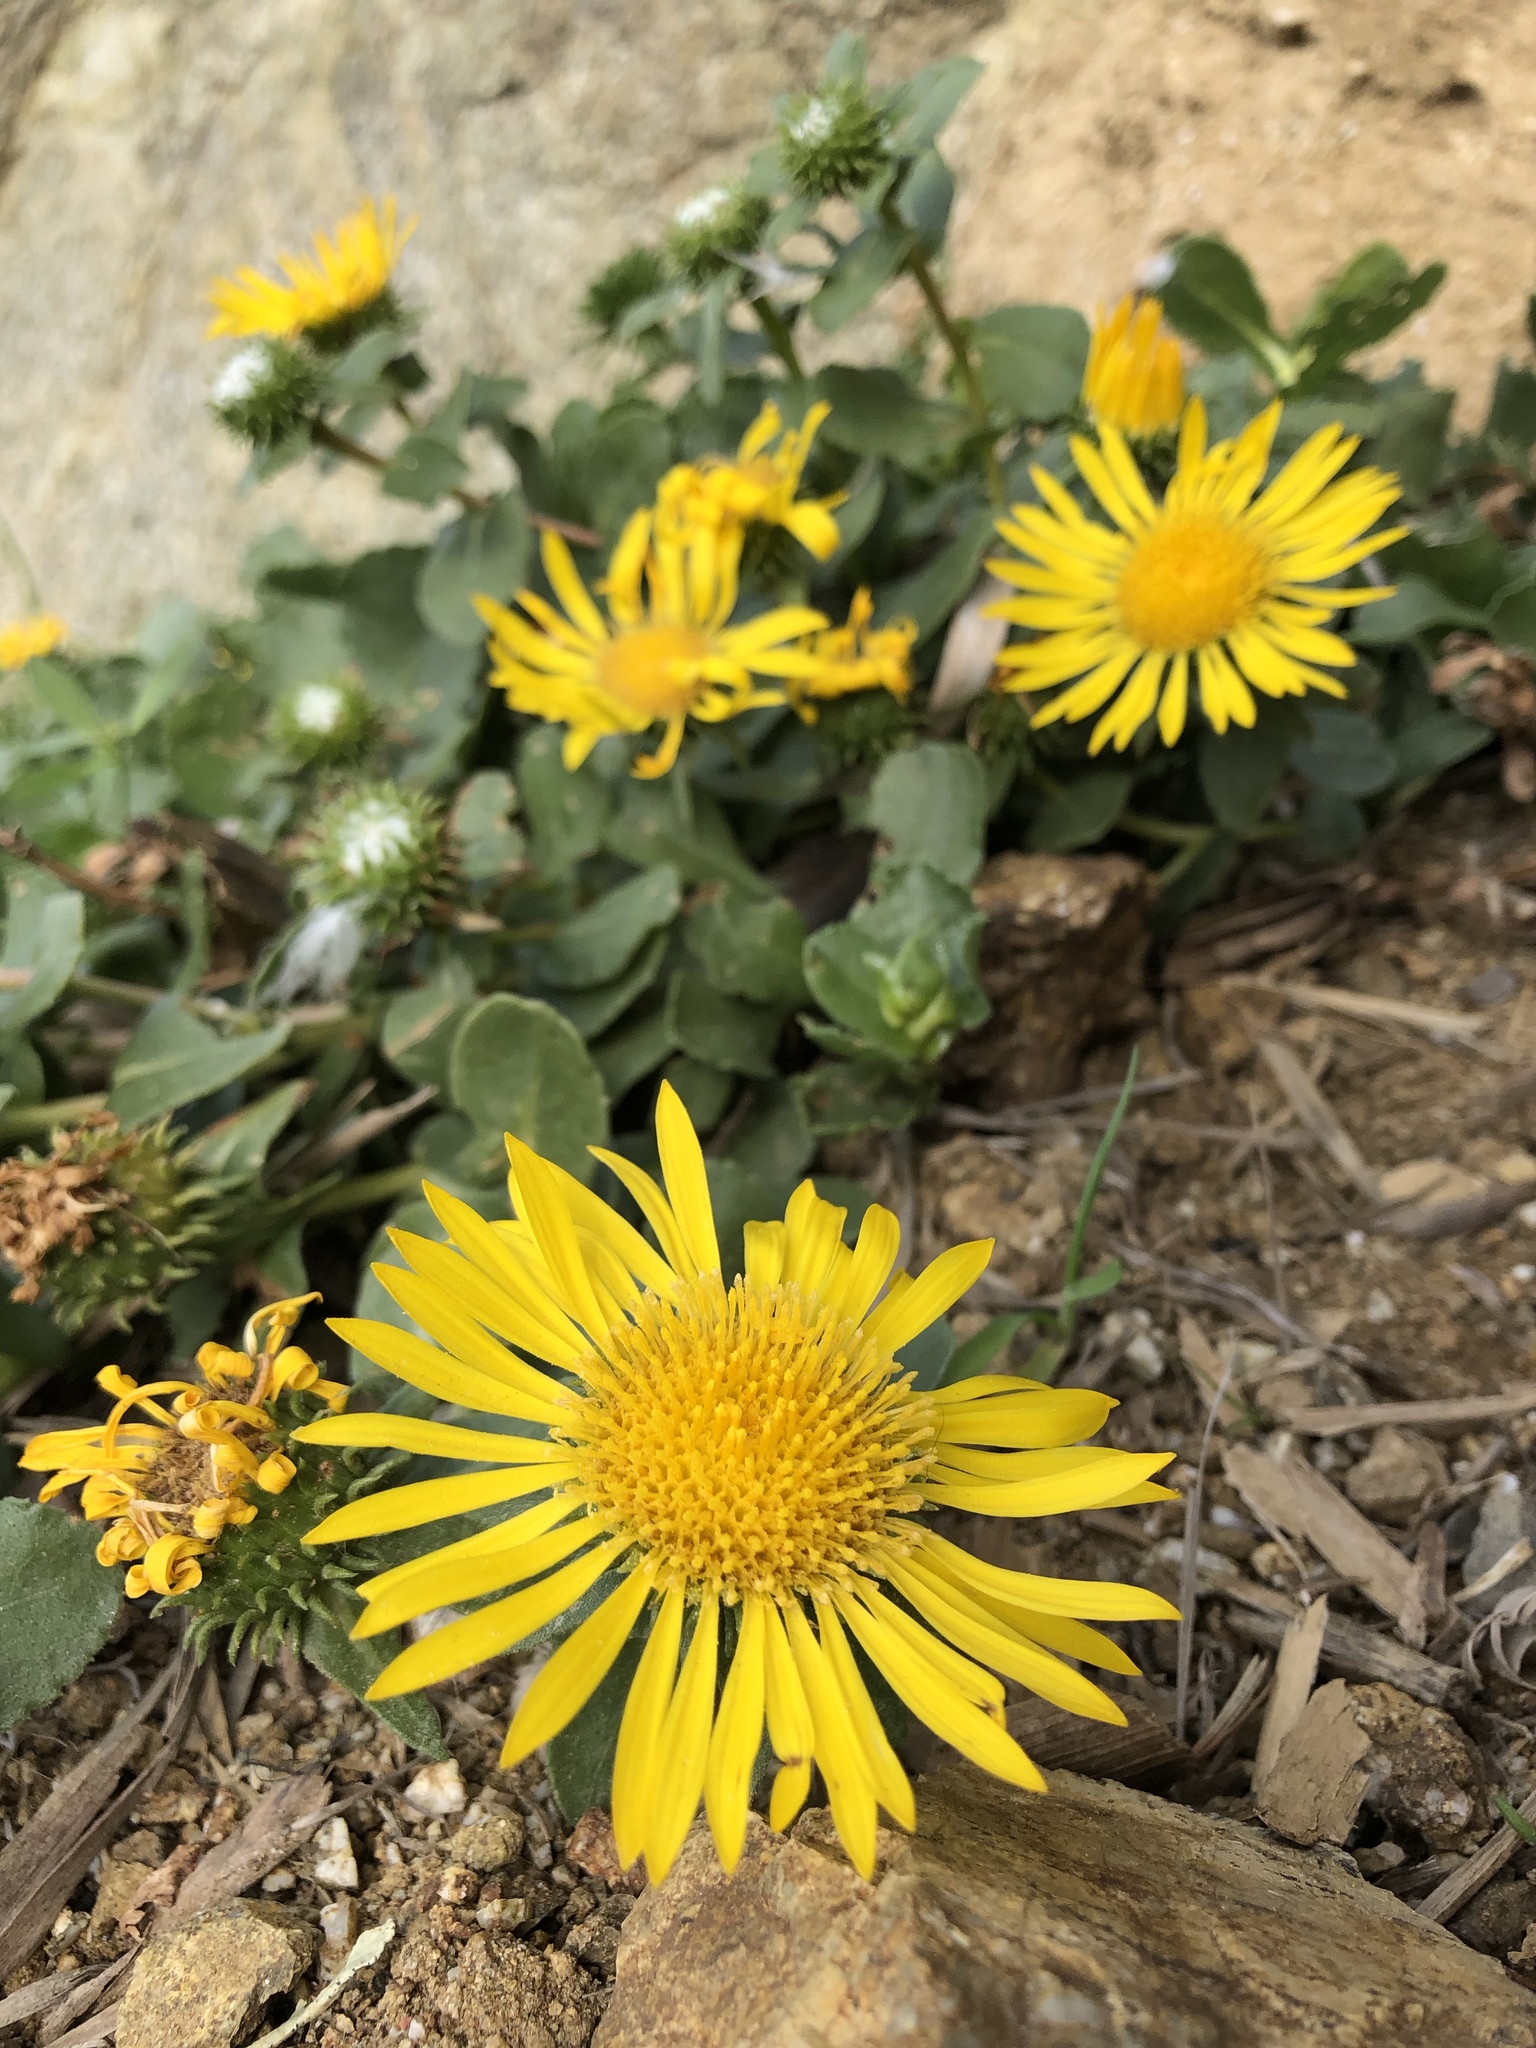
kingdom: Plantae
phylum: Tracheophyta
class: Magnoliopsida
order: Asterales
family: Asteraceae
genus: Grindelia
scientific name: Grindelia hirsutula
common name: Hairy gumweed
